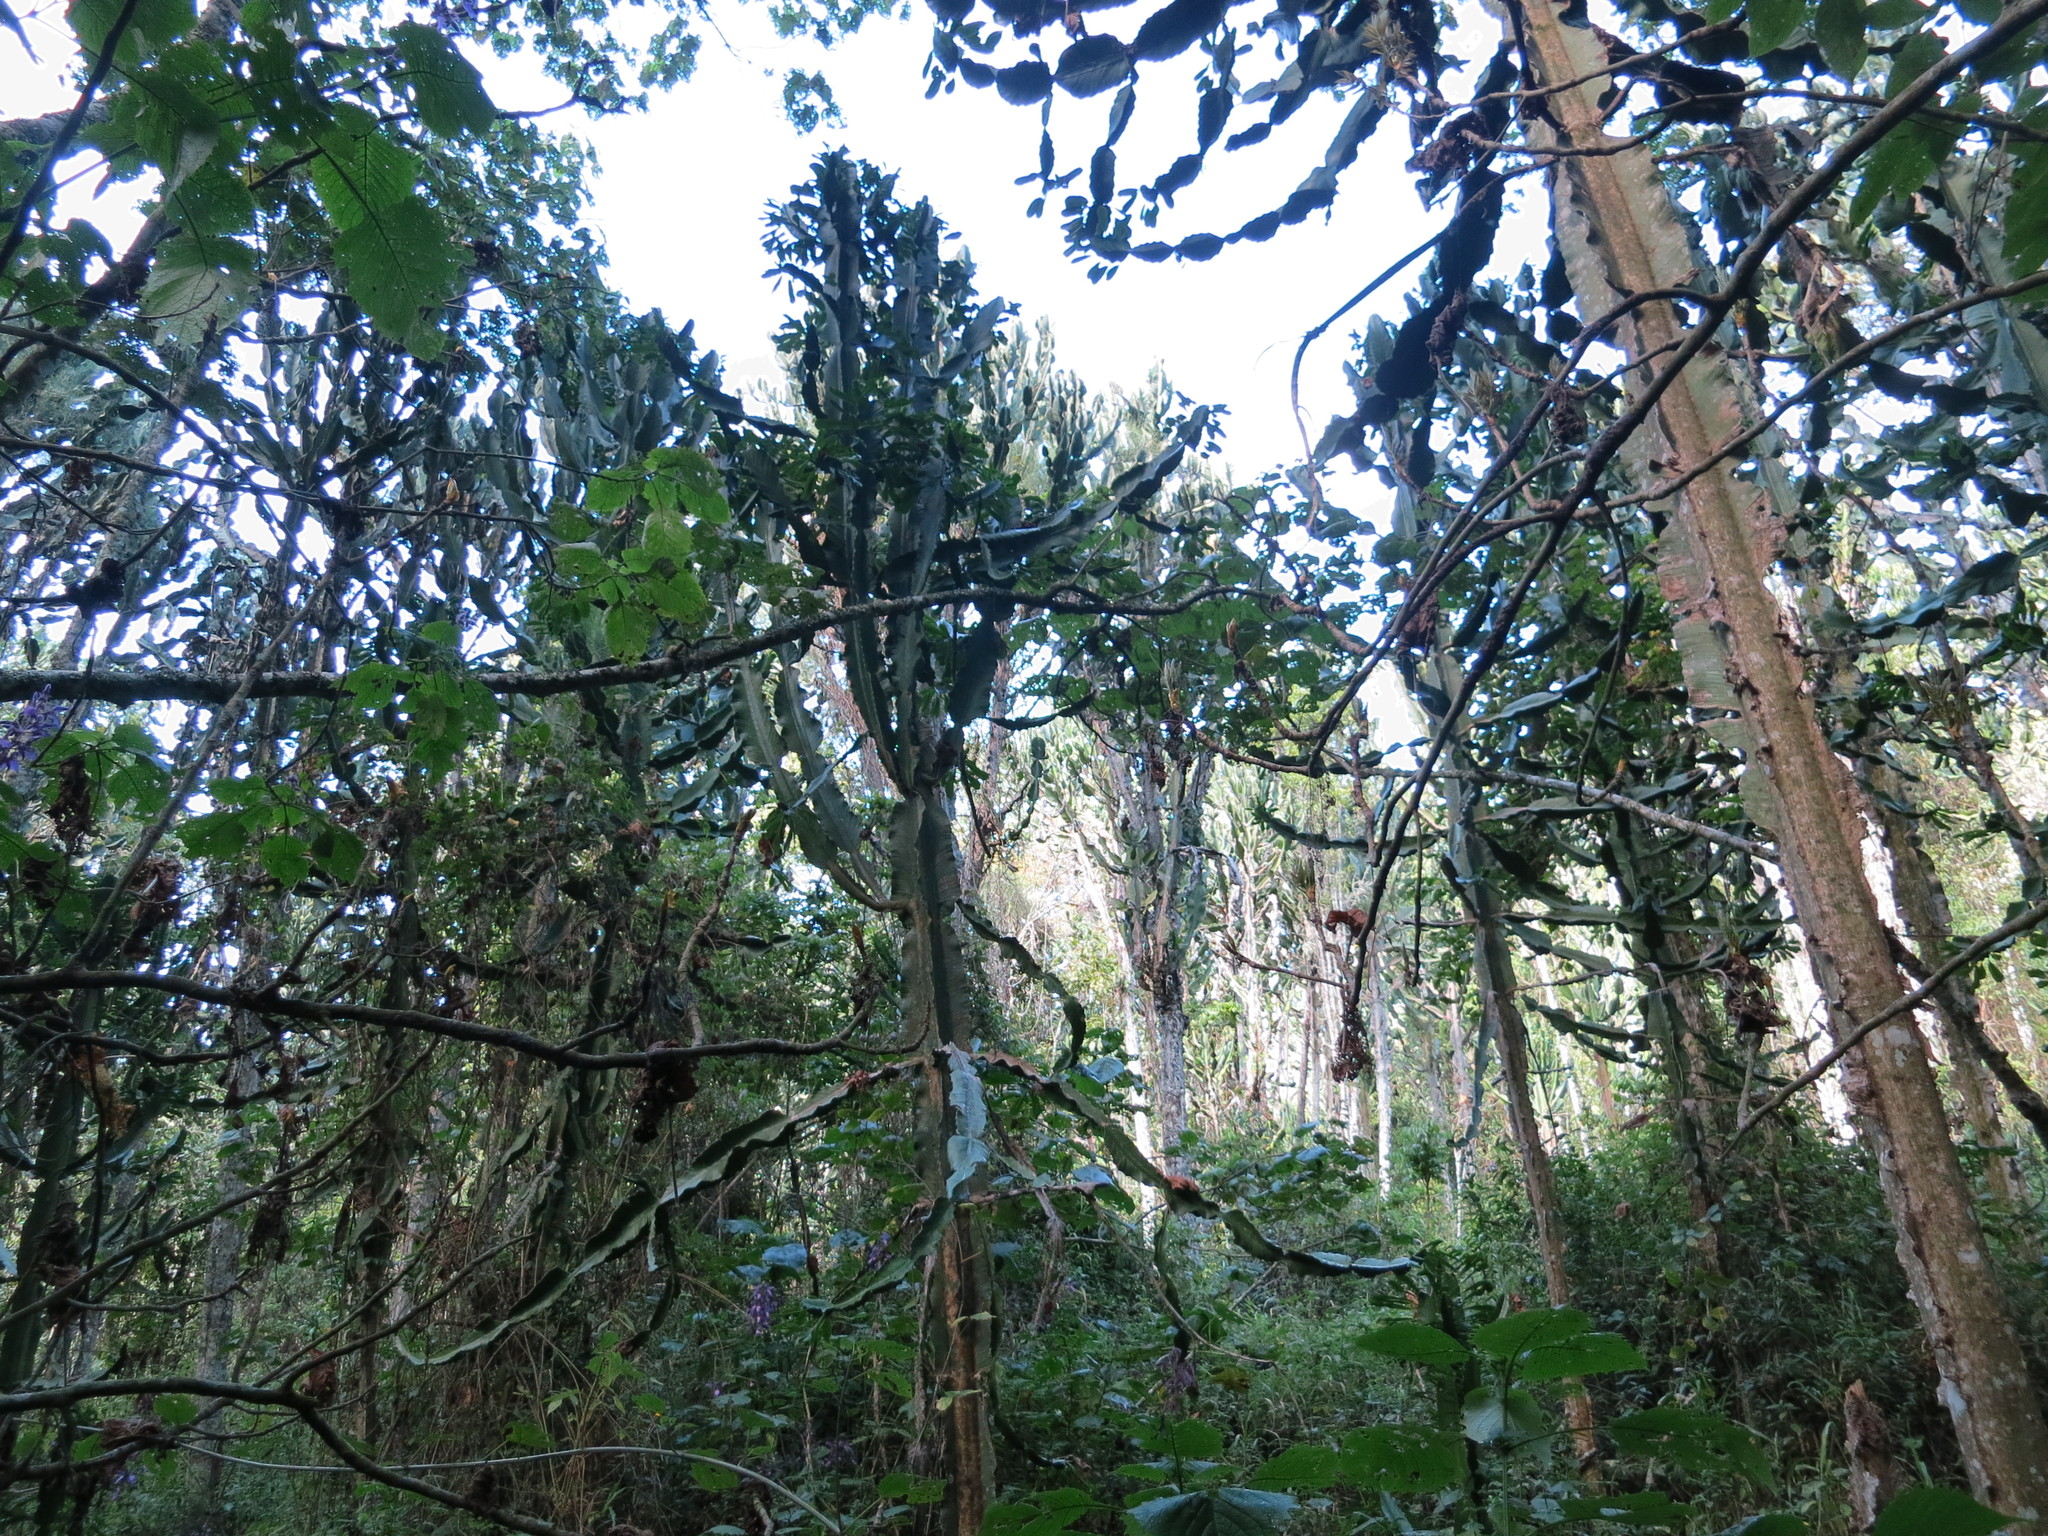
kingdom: Plantae
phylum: Tracheophyta
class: Magnoliopsida
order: Malpighiales
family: Euphorbiaceae
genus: Euphorbia
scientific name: Euphorbia ingens
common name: Cactus spurge
